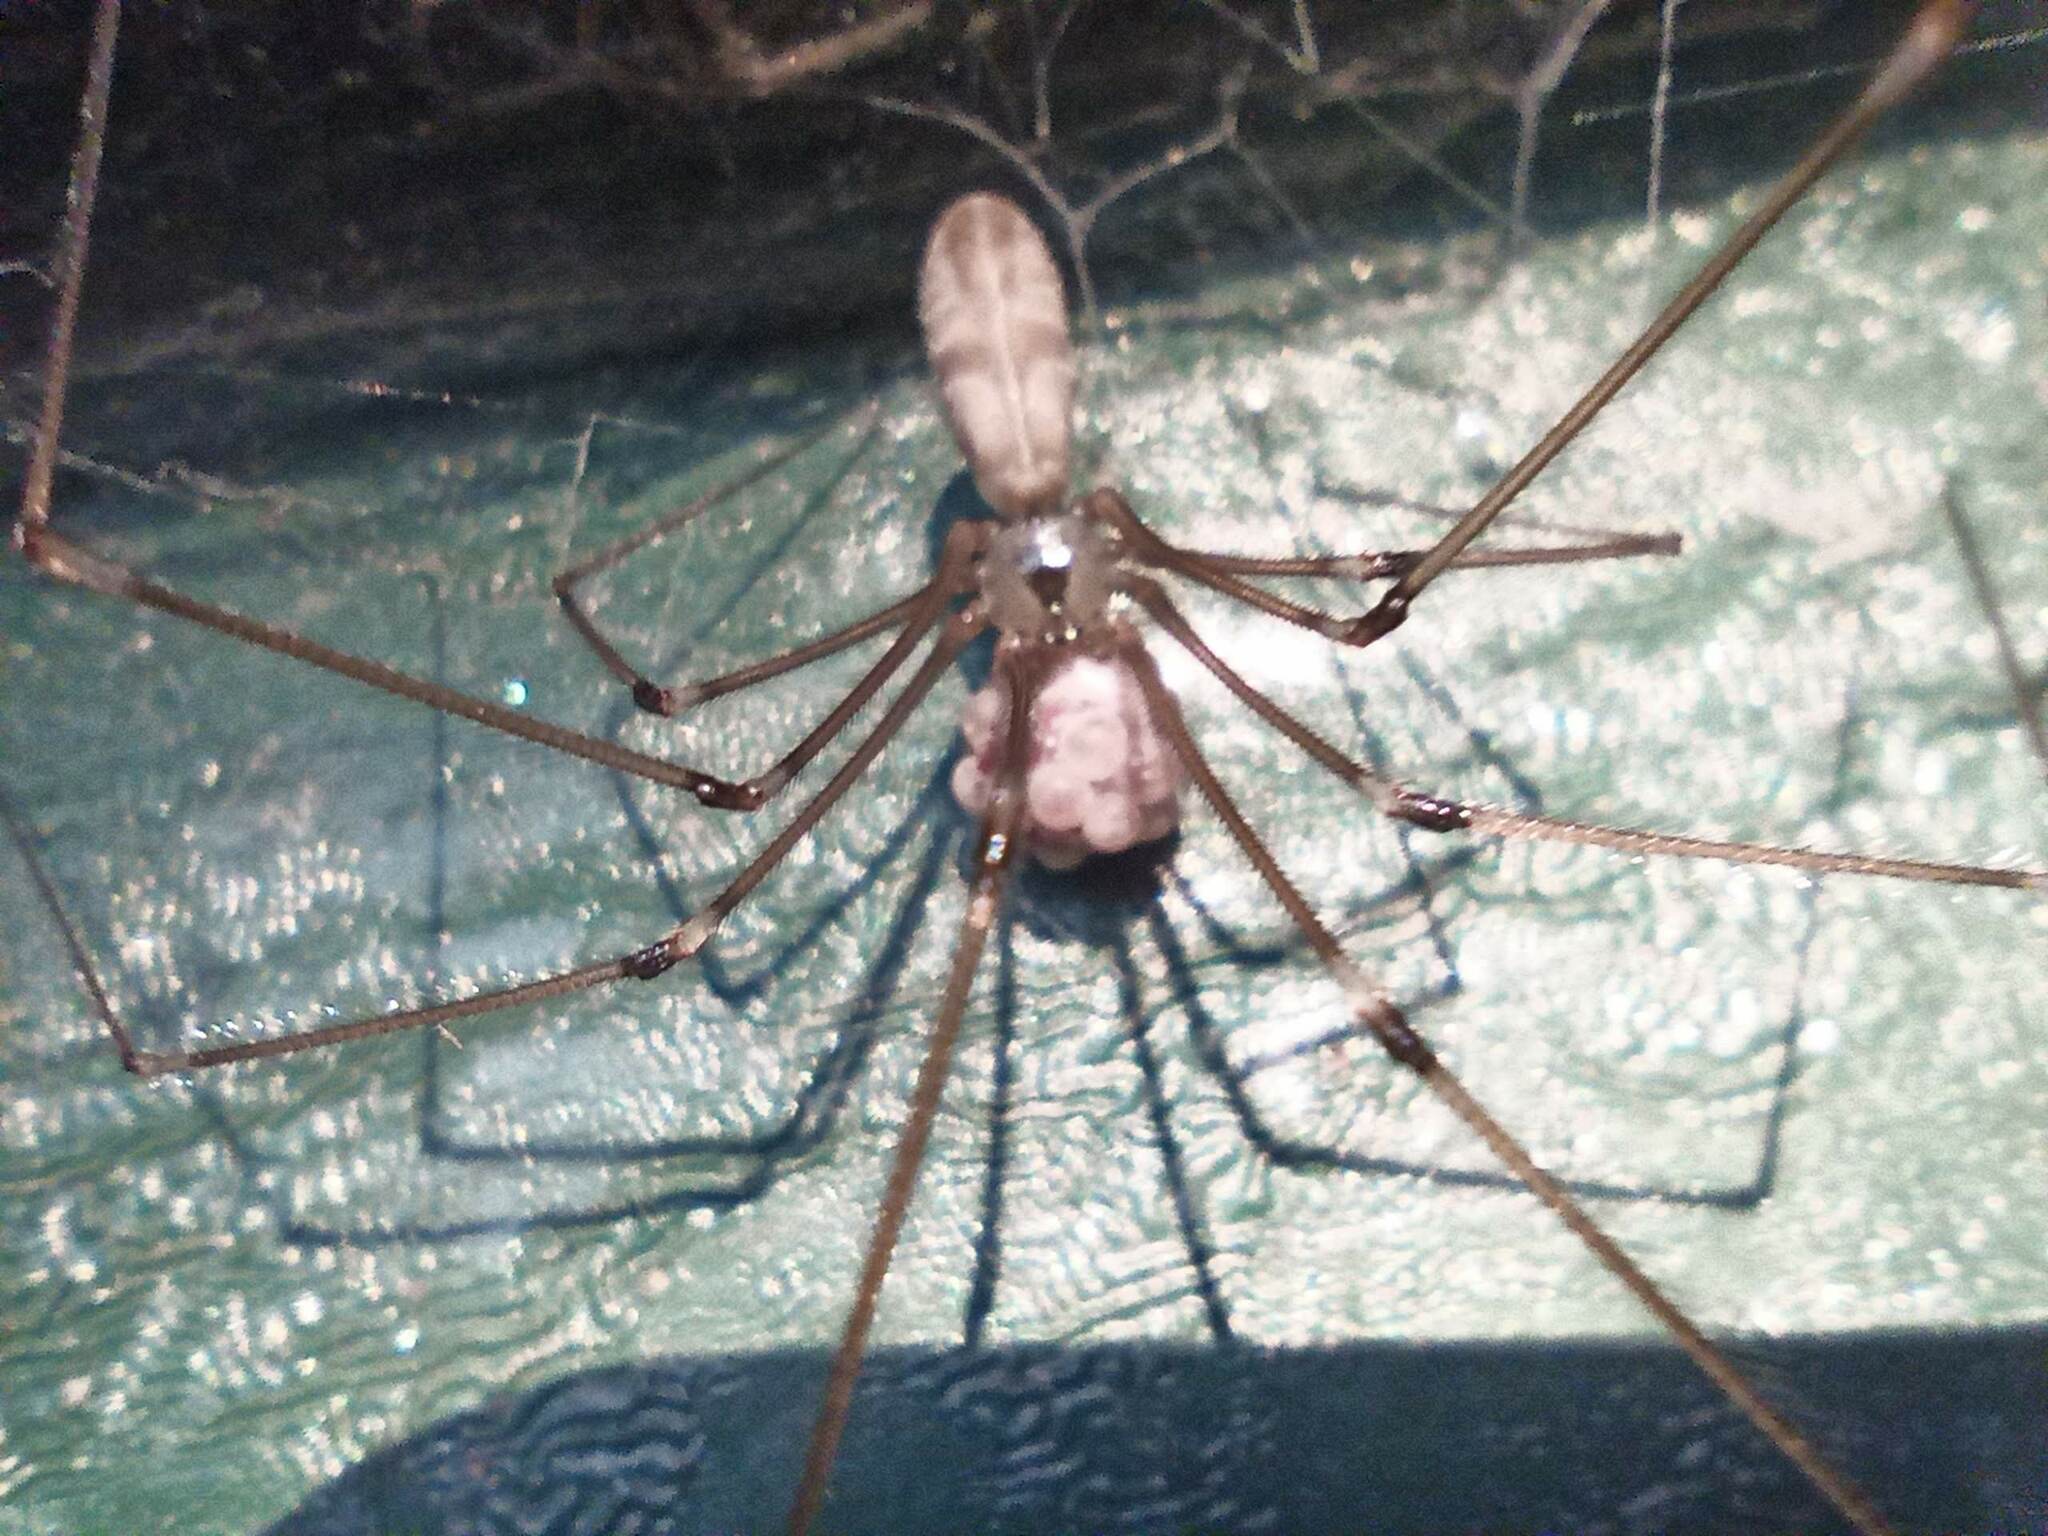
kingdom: Animalia
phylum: Arthropoda
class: Arachnida
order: Araneae
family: Pholcidae
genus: Pholcus
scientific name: Pholcus phalangioides
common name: Longbodied cellar spider
